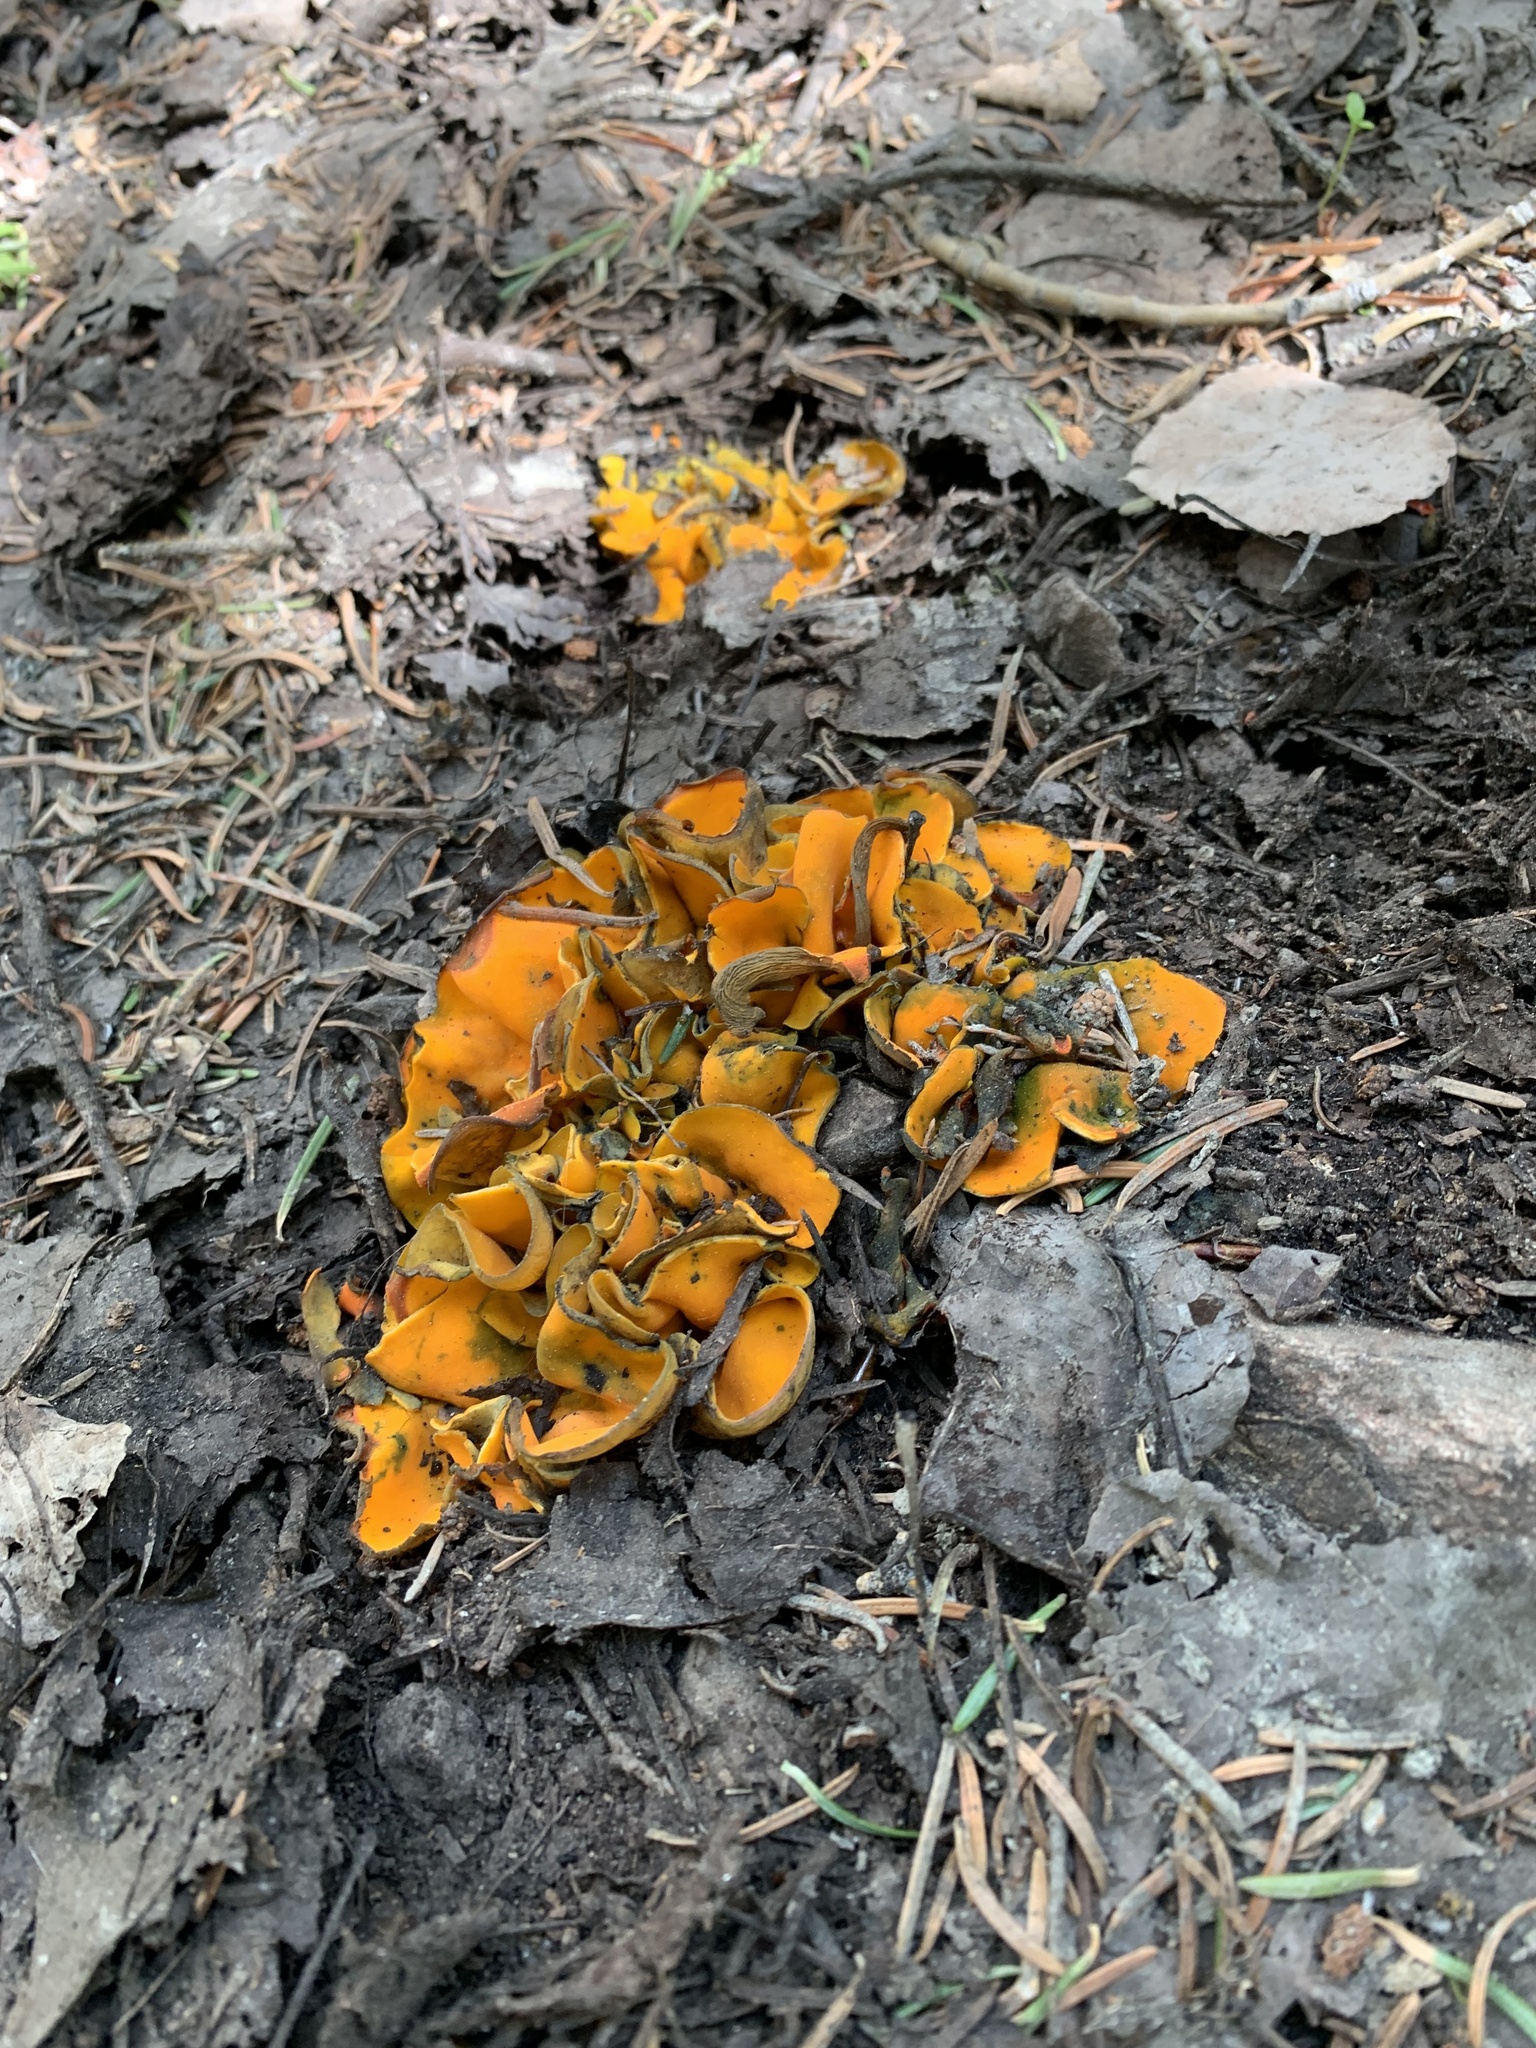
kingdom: Fungi
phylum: Ascomycota
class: Pezizomycetes
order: Pezizales
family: Caloscyphaceae
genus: Caloscypha
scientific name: Caloscypha fulgens
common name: Golden cup
